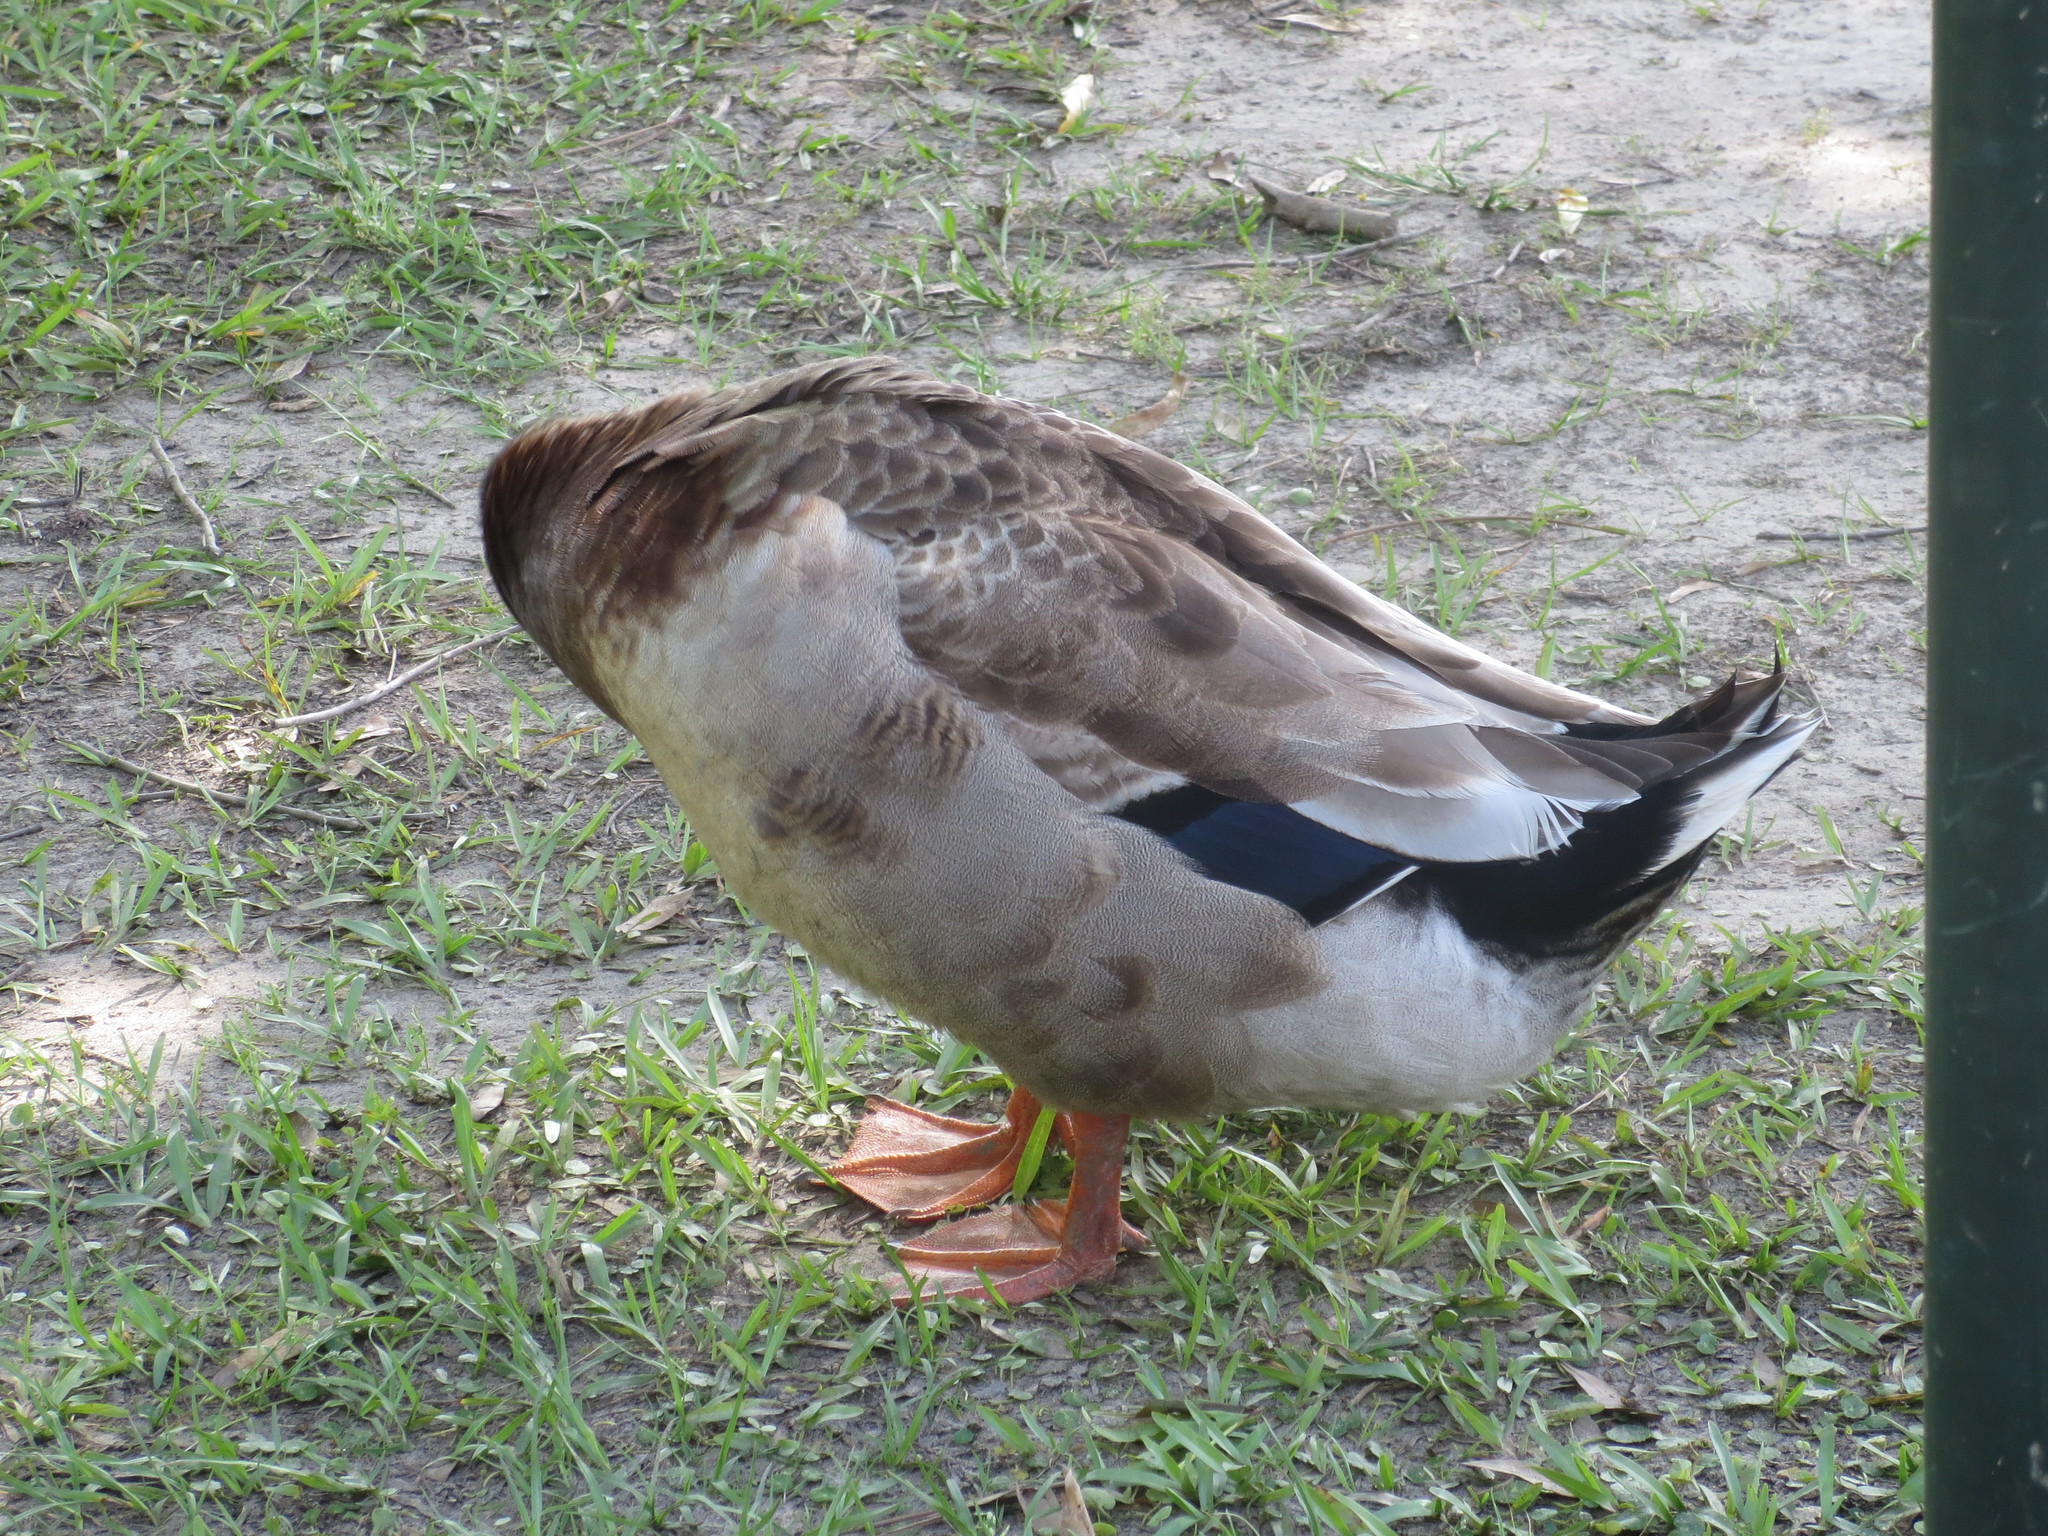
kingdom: Animalia
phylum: Chordata
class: Aves
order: Anseriformes
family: Anatidae
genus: Anas
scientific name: Anas platyrhynchos
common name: Mallard
